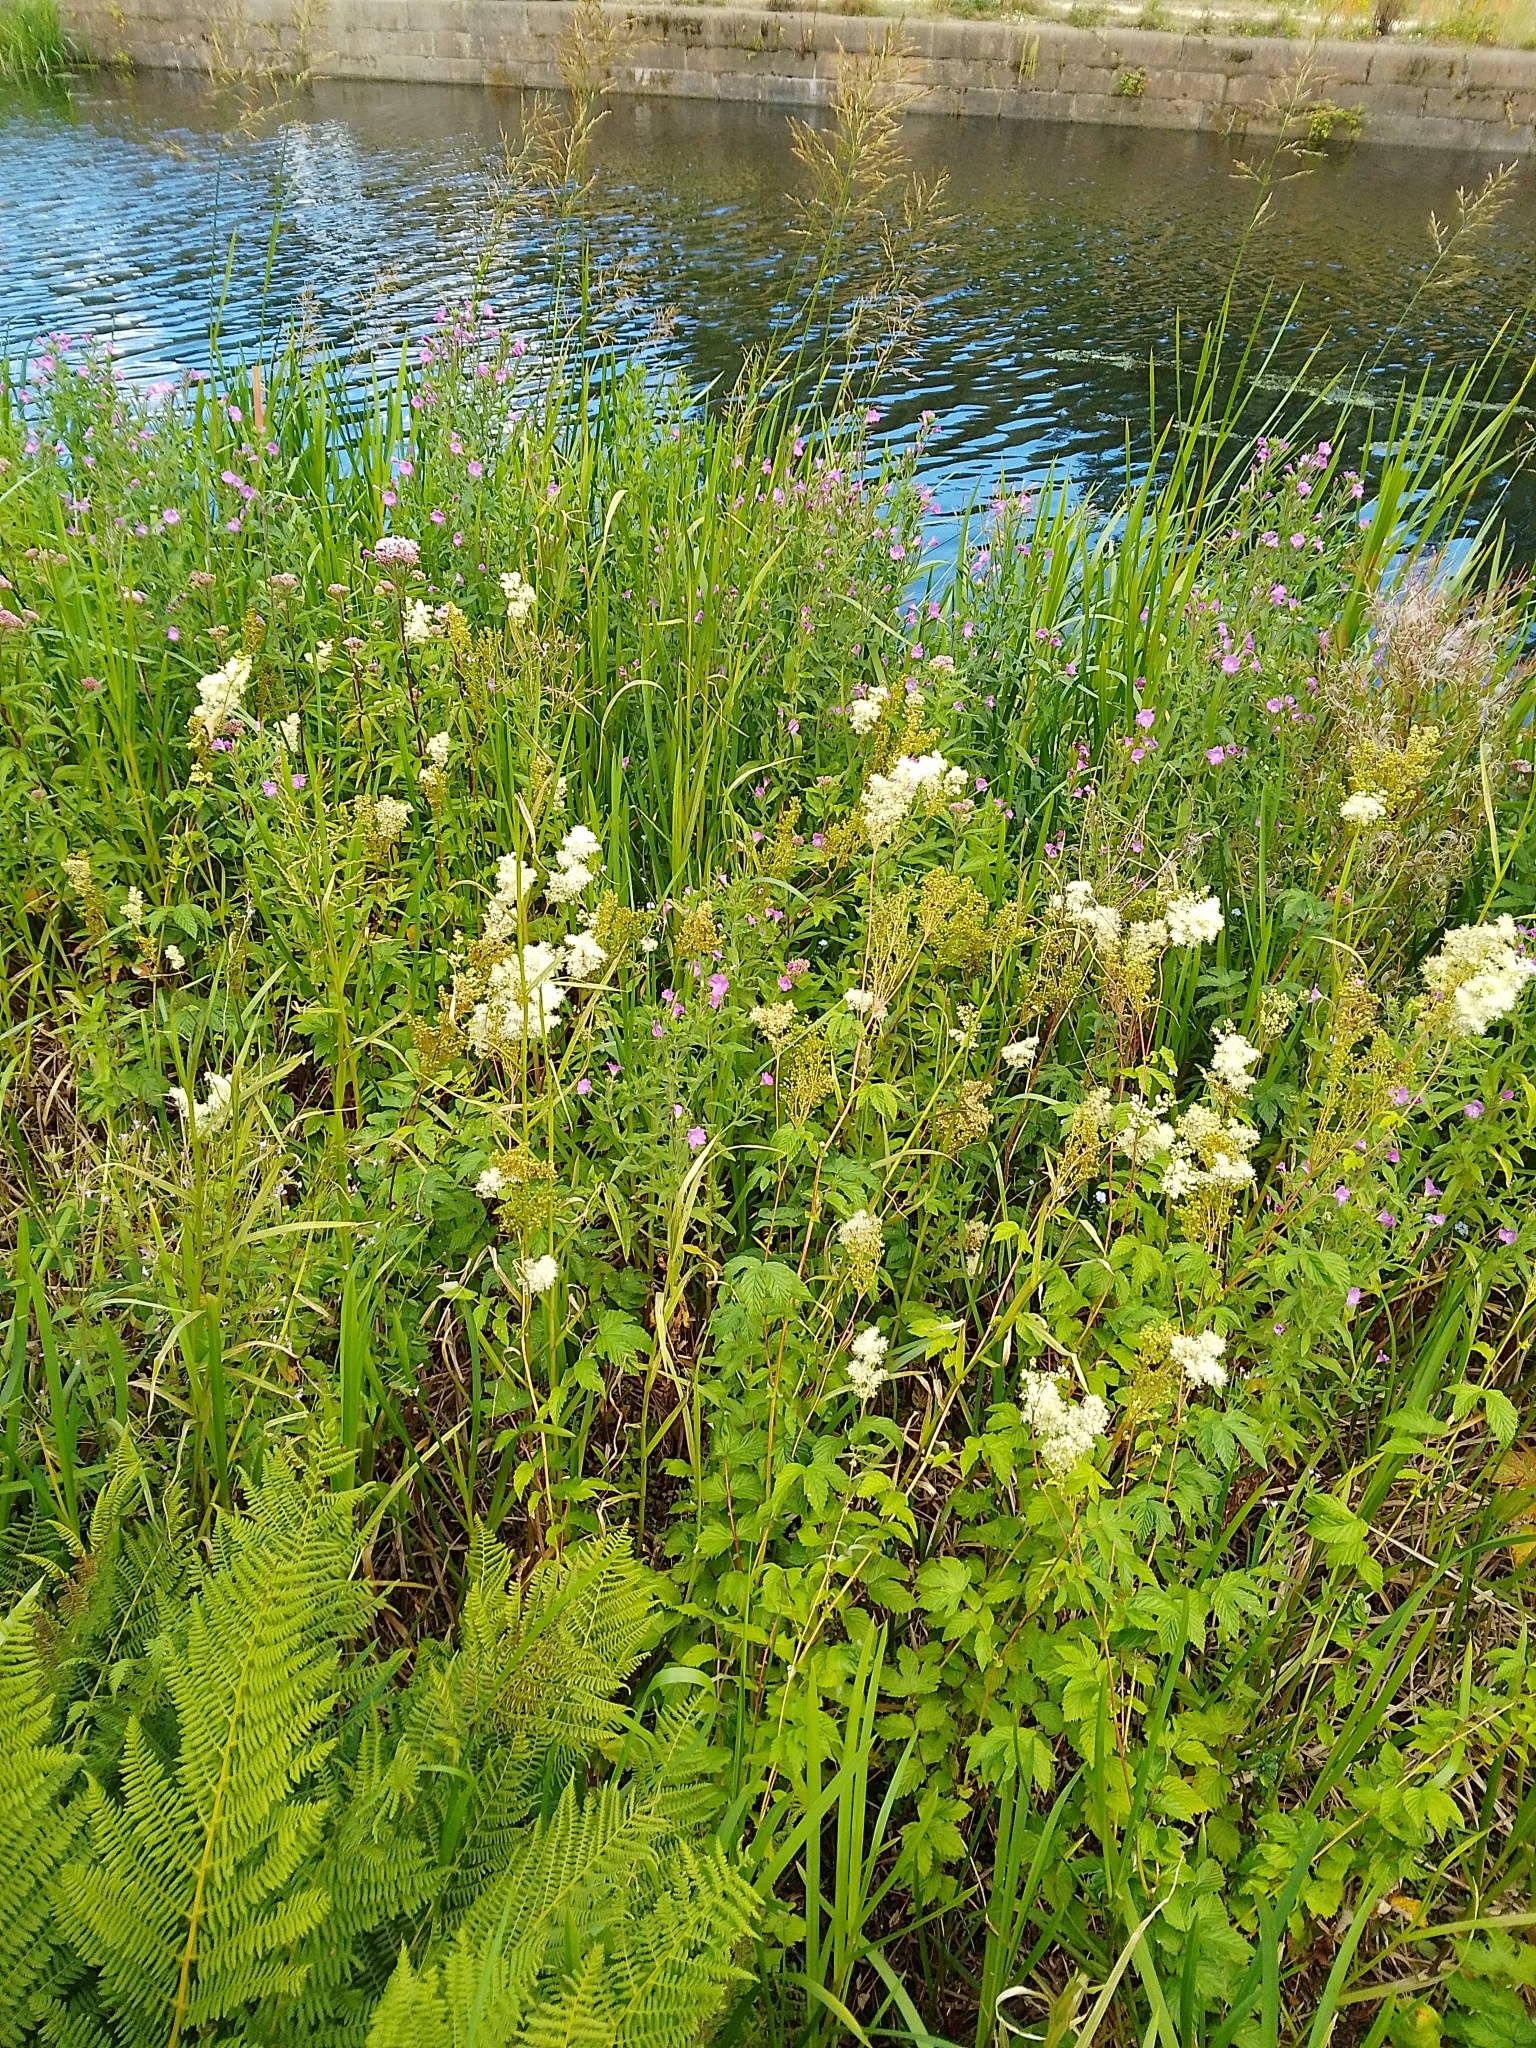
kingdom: Plantae
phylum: Tracheophyta
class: Magnoliopsida
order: Rosales
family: Rosaceae
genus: Filipendula
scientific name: Filipendula ulmaria
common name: Meadowsweet
